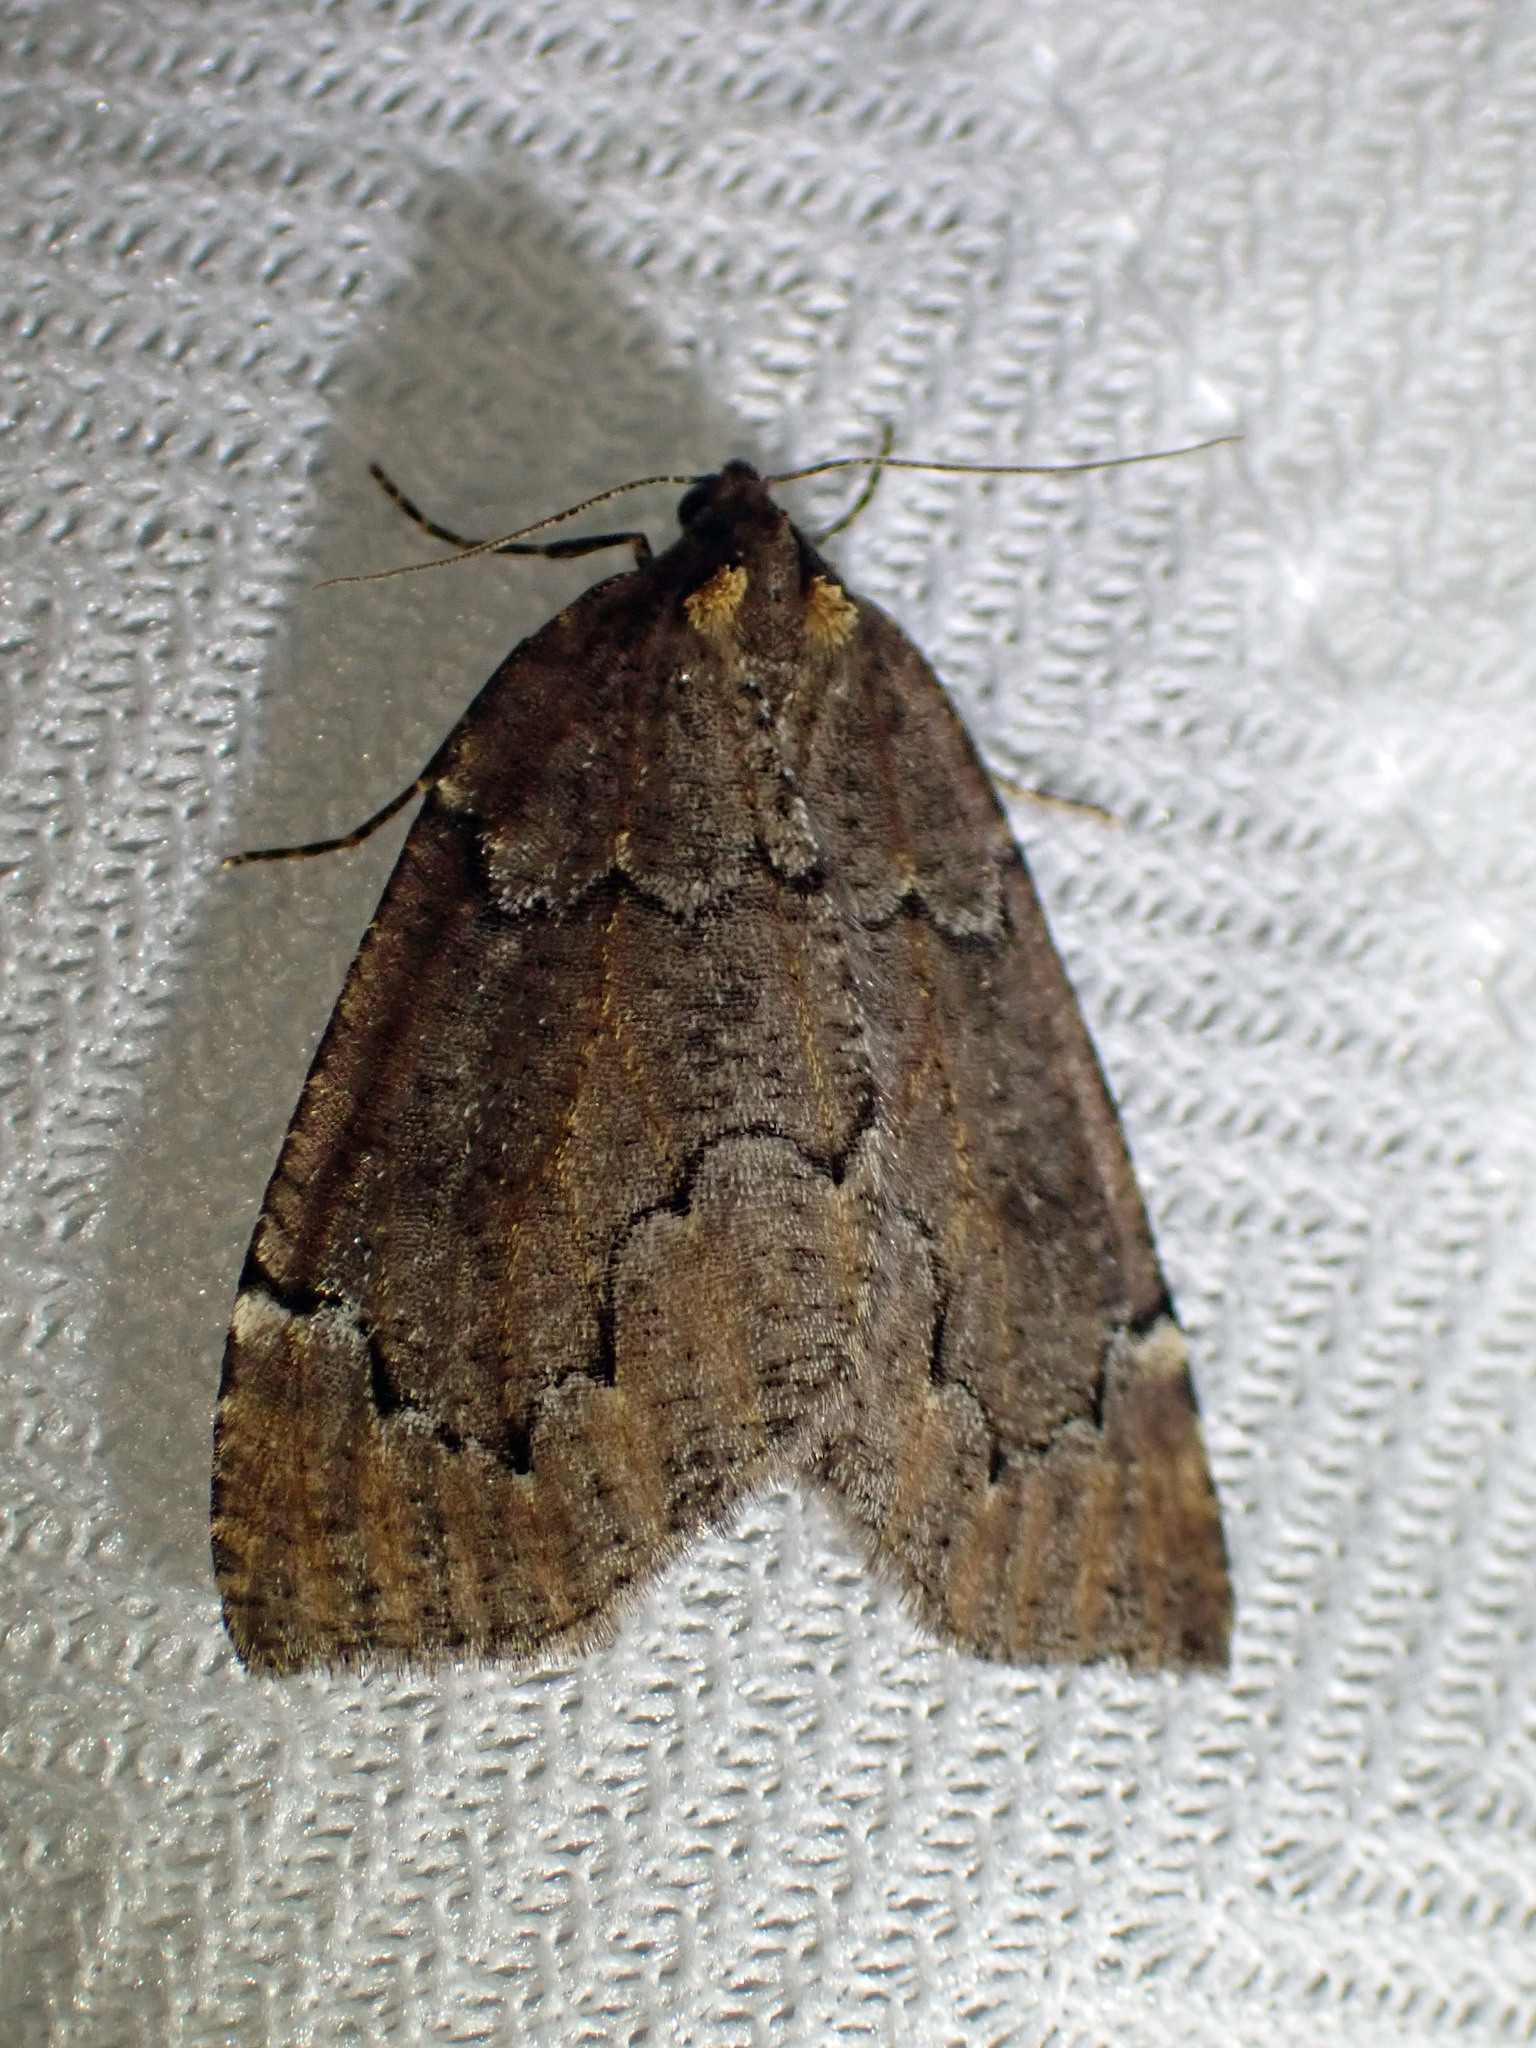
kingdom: Animalia
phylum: Arthropoda
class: Insecta
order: Lepidoptera
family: Geometridae
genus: Spodolepis
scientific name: Spodolepis substriataria
